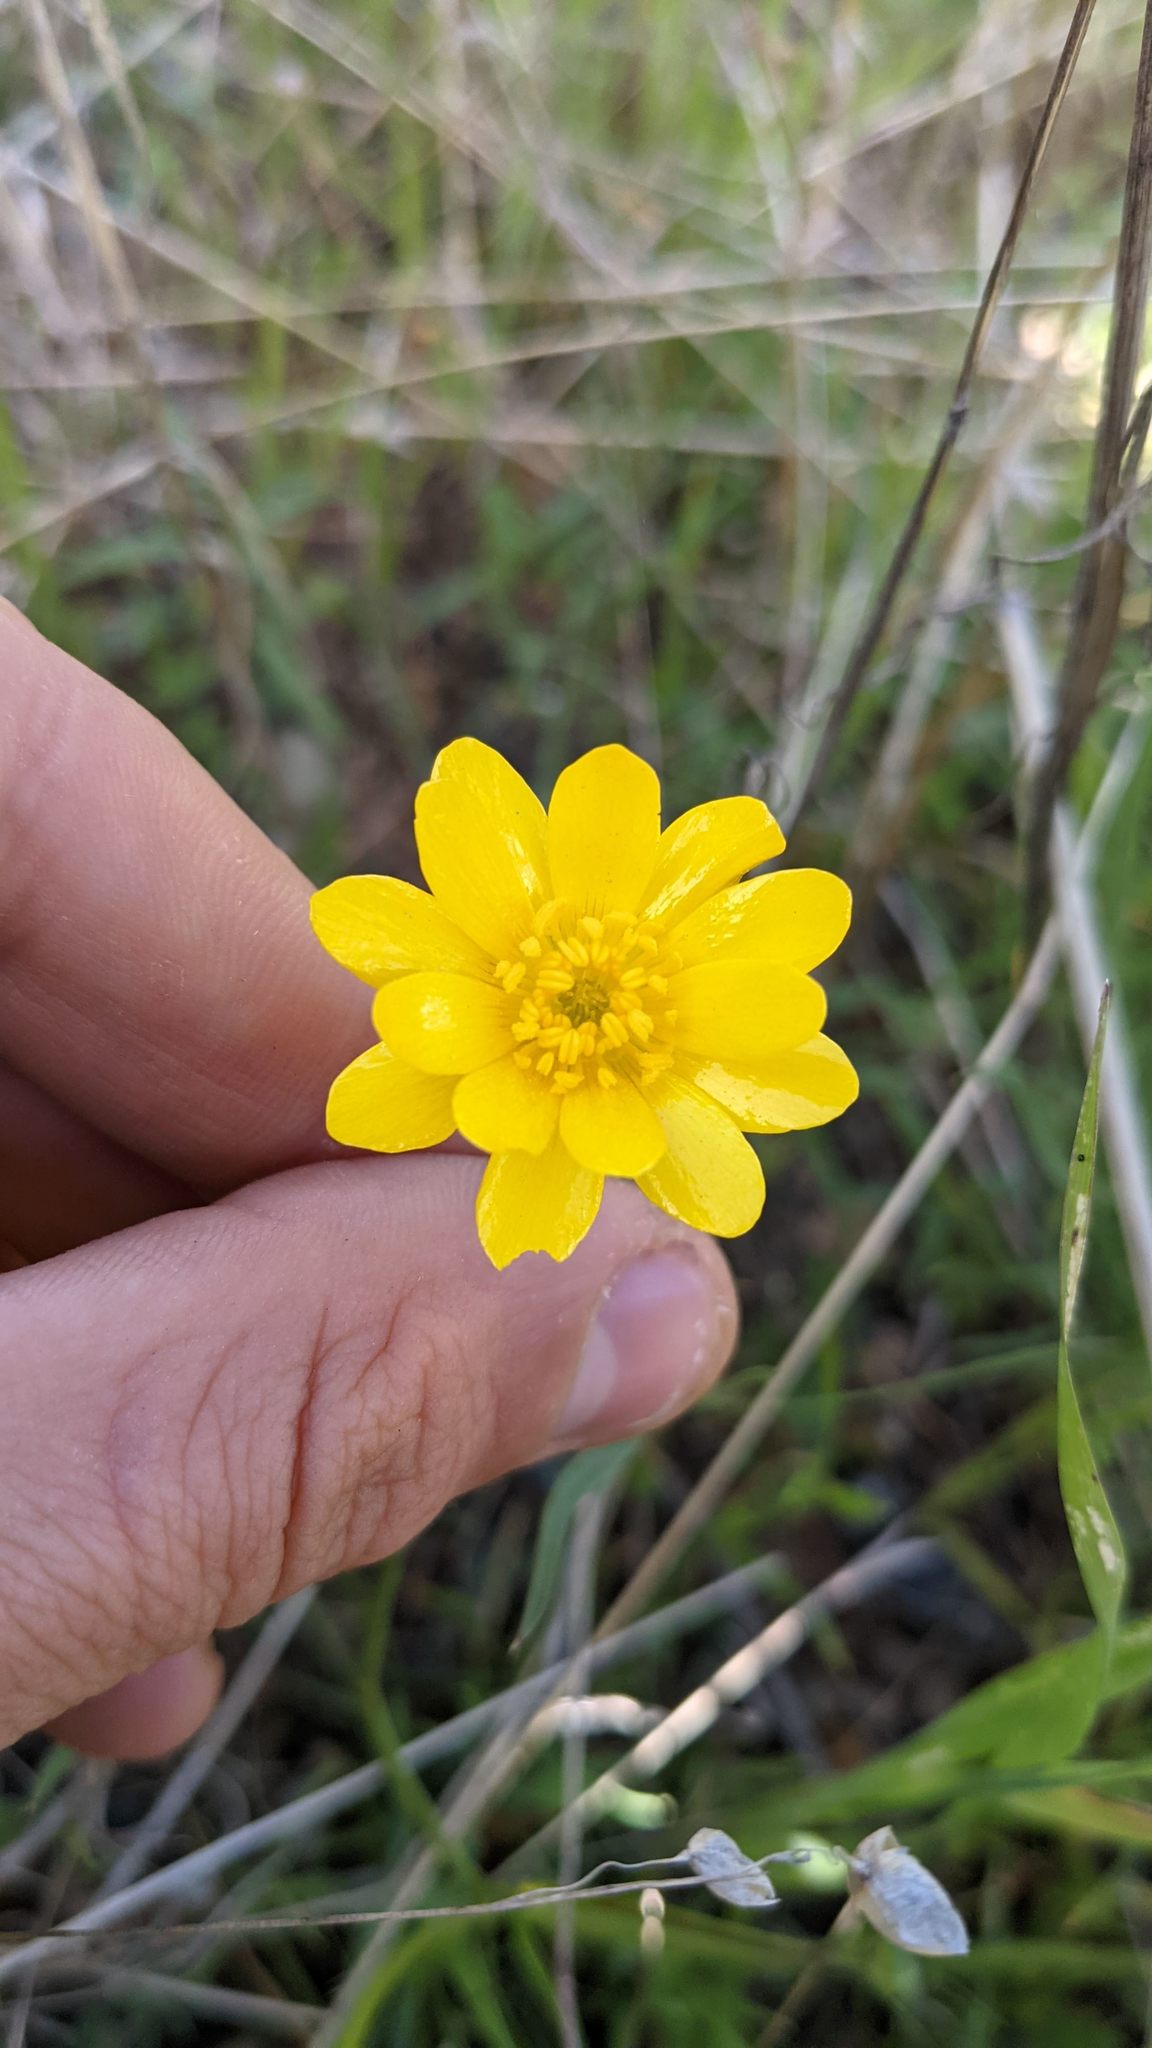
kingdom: Plantae
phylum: Tracheophyta
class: Magnoliopsida
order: Ranunculales
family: Ranunculaceae
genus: Ranunculus
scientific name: Ranunculus californicus
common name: California buttercup
